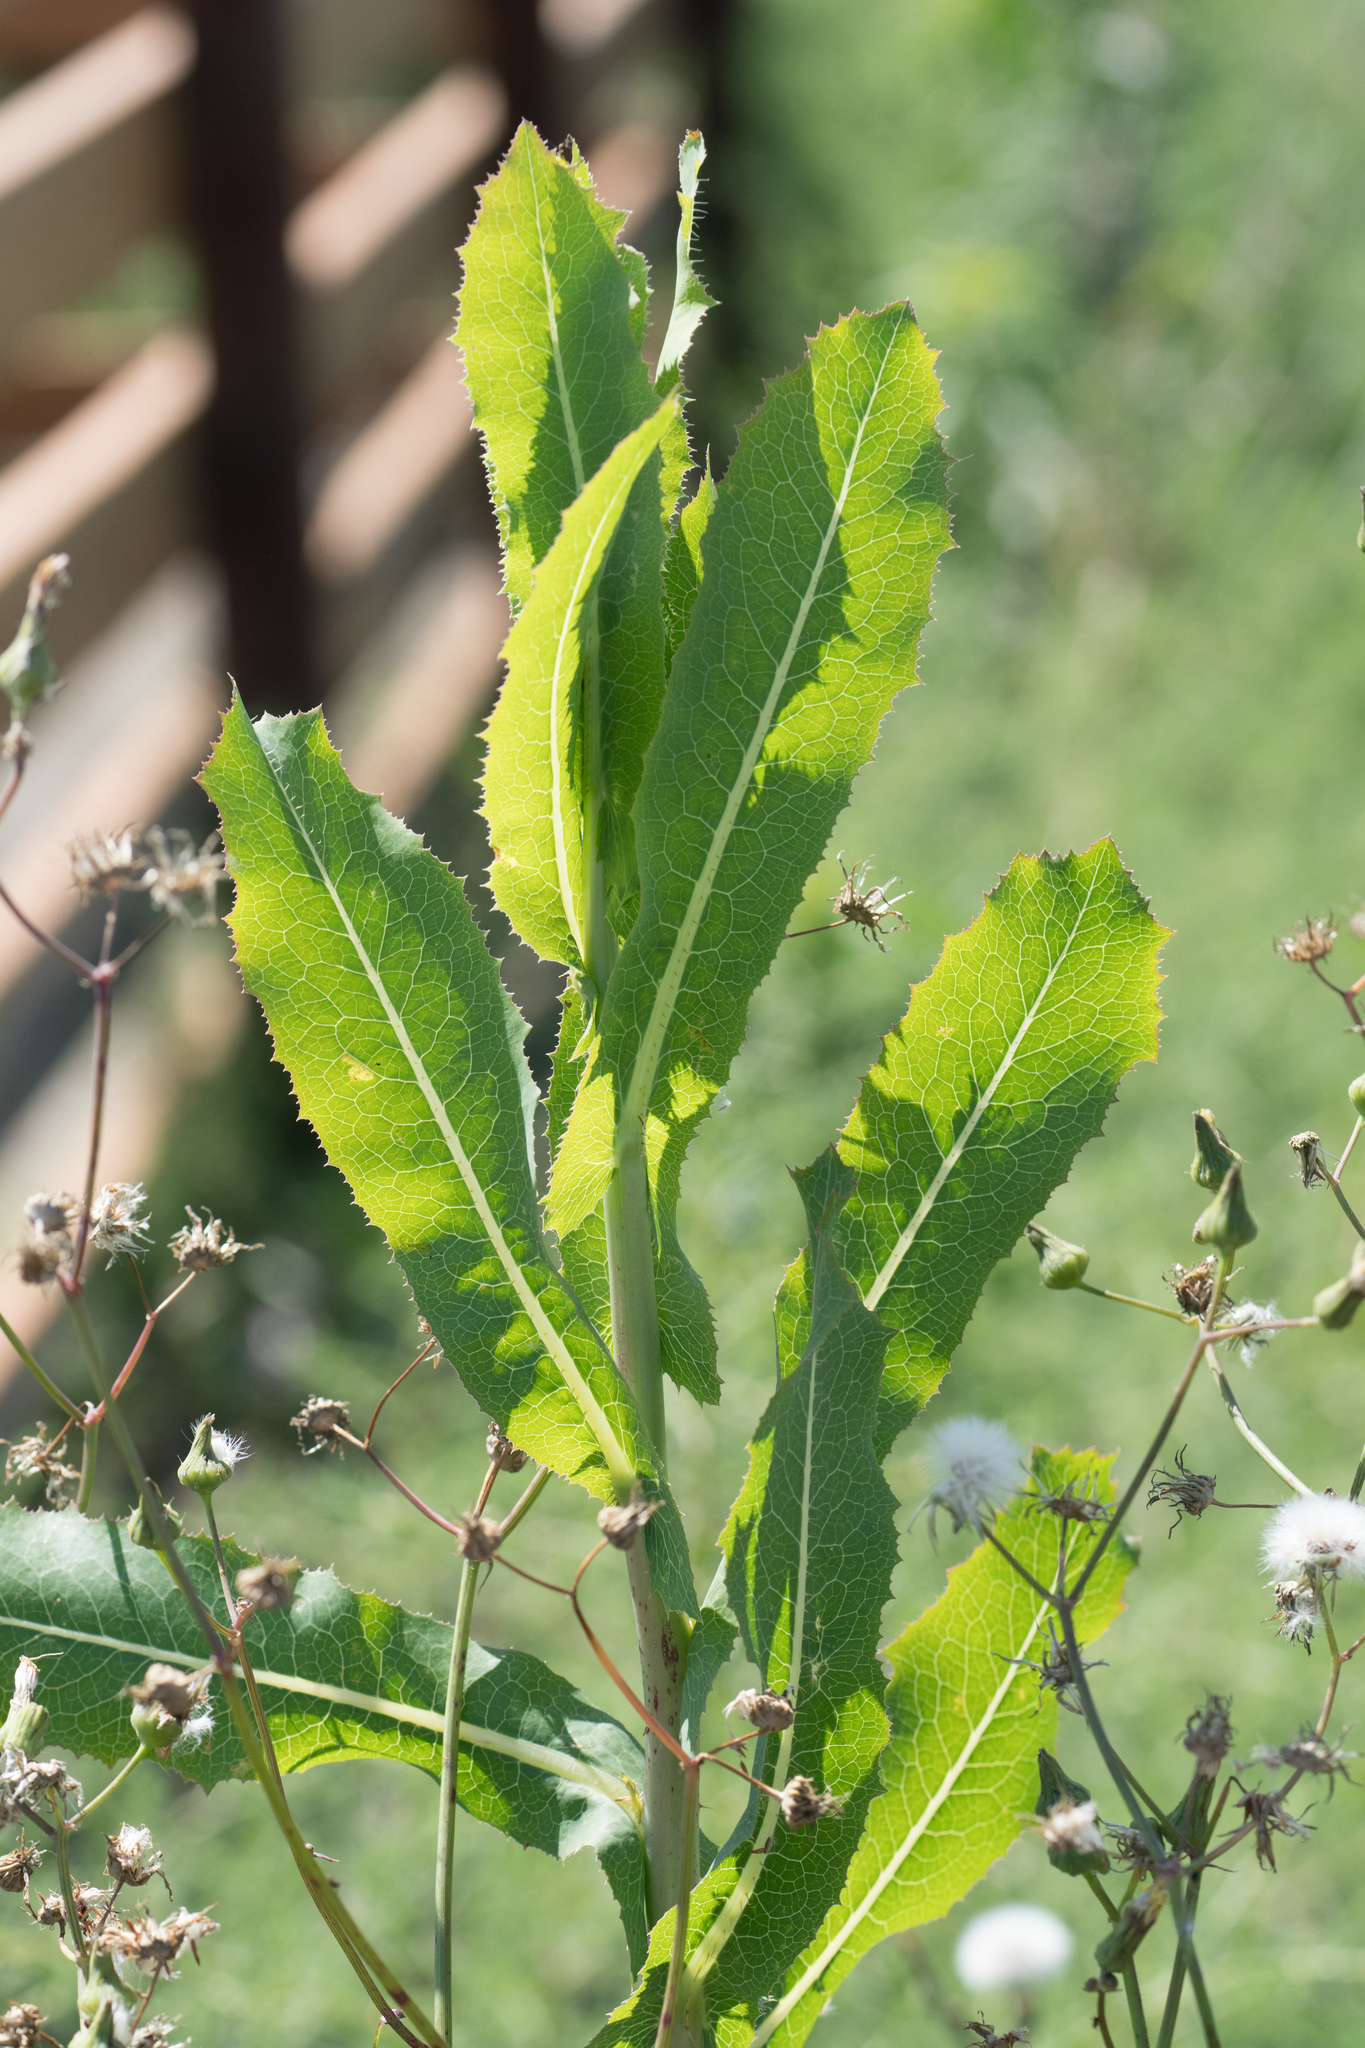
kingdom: Plantae
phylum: Tracheophyta
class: Magnoliopsida
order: Asterales
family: Asteraceae
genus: Lactuca
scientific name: Lactuca serriola
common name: Prickly lettuce
